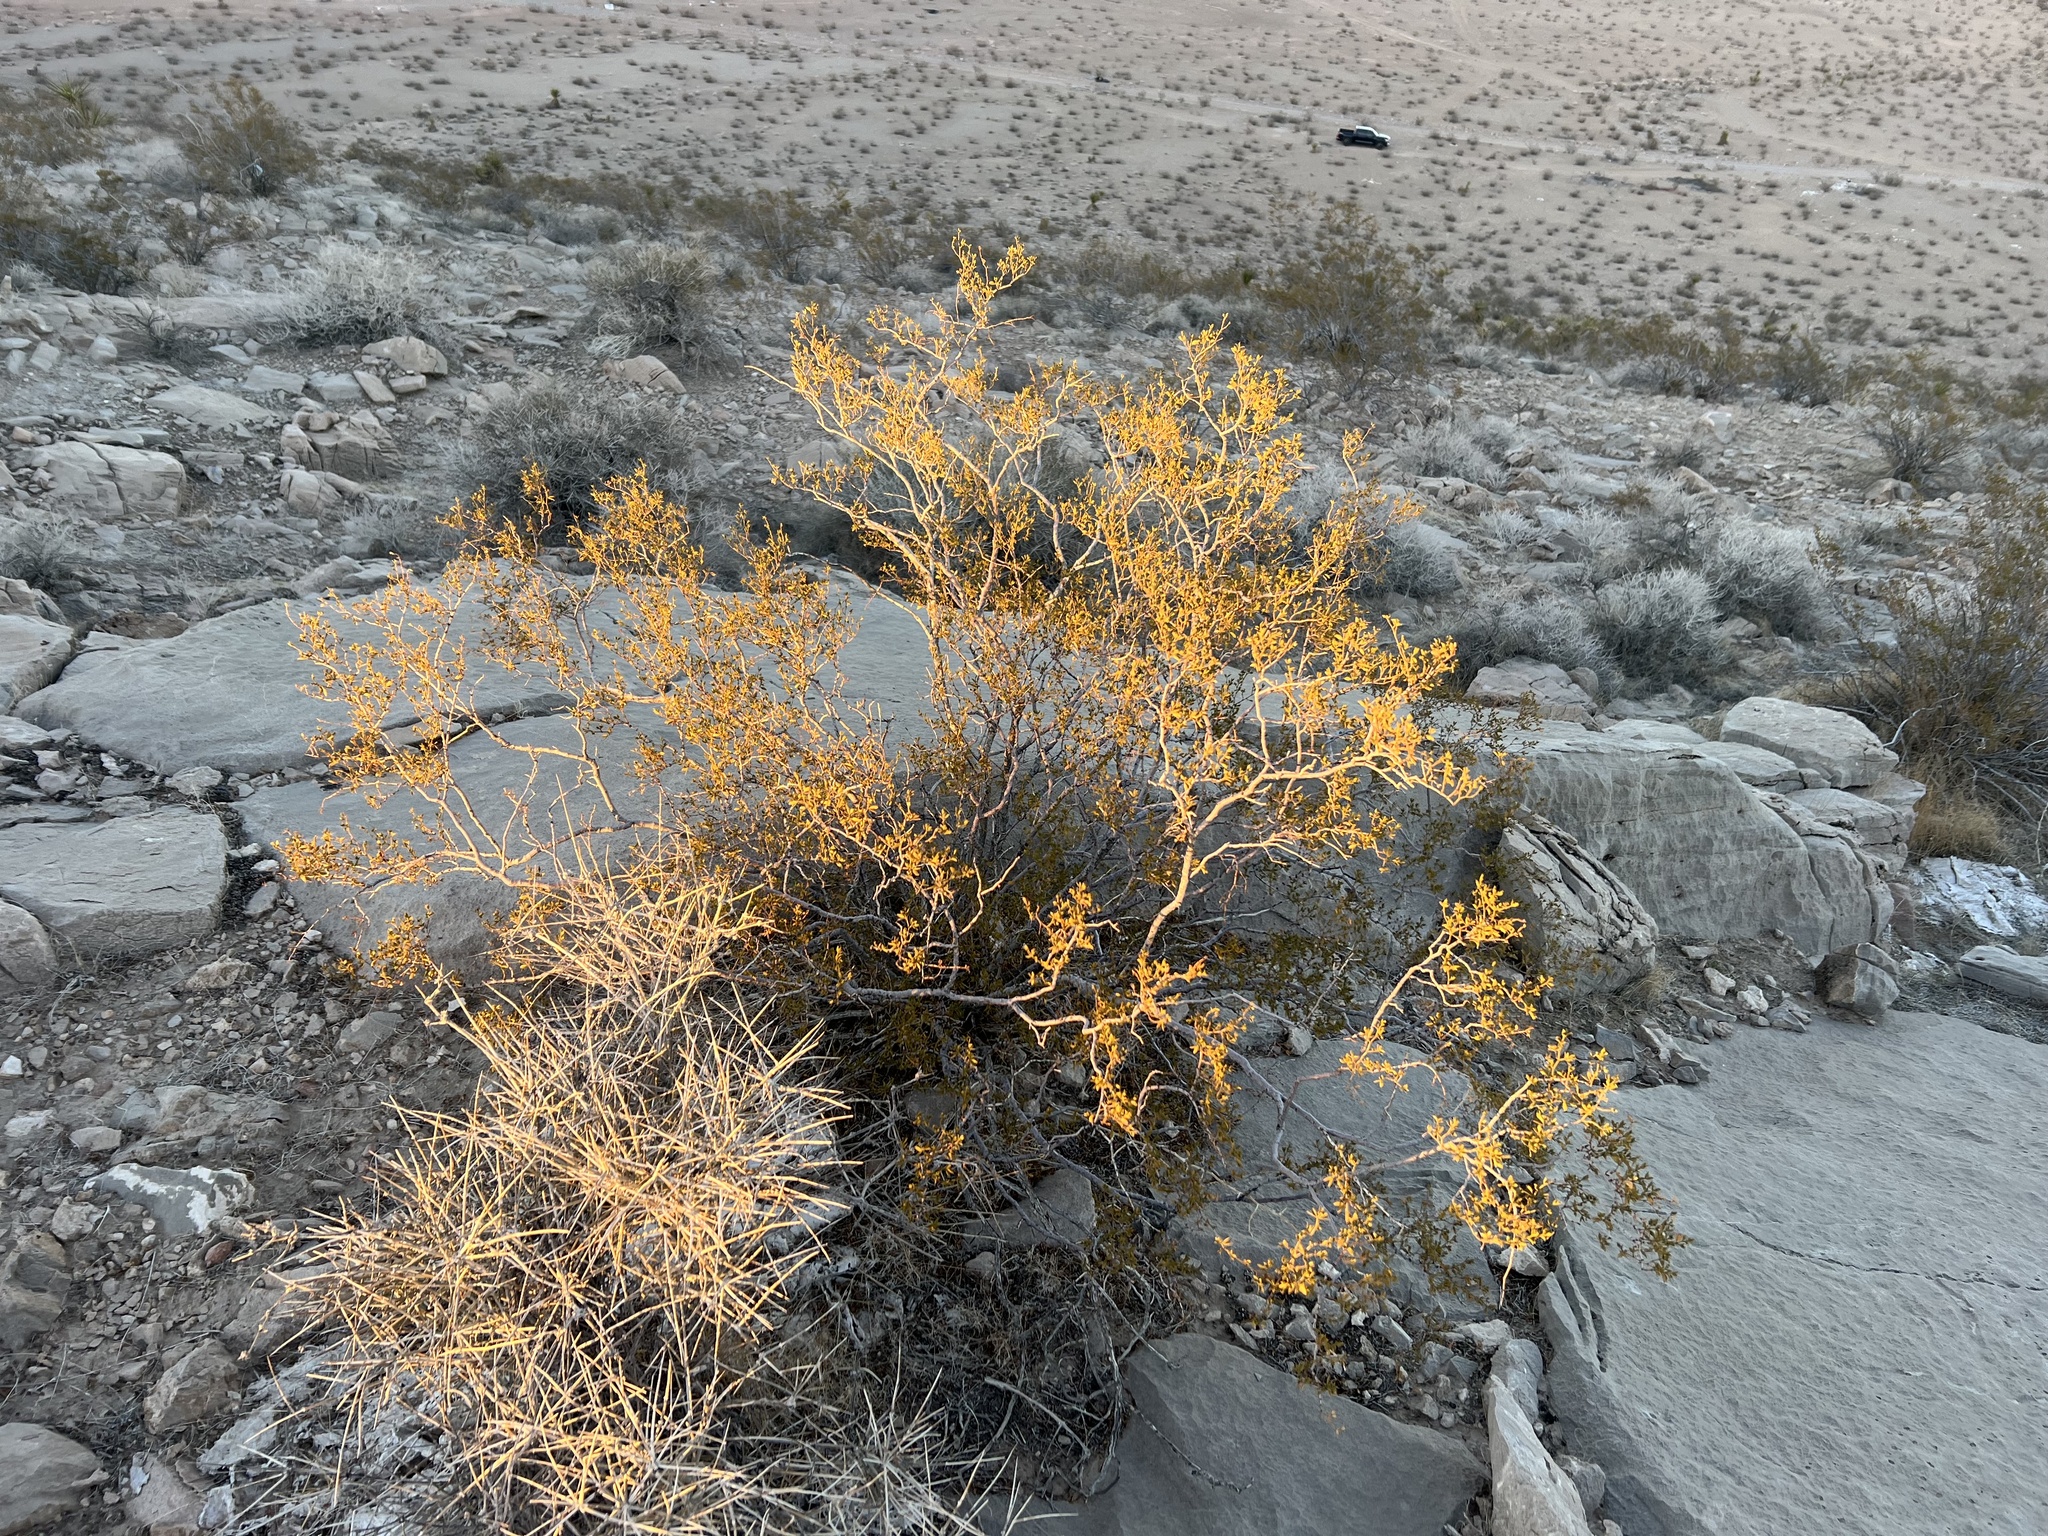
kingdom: Plantae
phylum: Tracheophyta
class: Magnoliopsida
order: Zygophyllales
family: Zygophyllaceae
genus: Larrea
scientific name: Larrea tridentata
